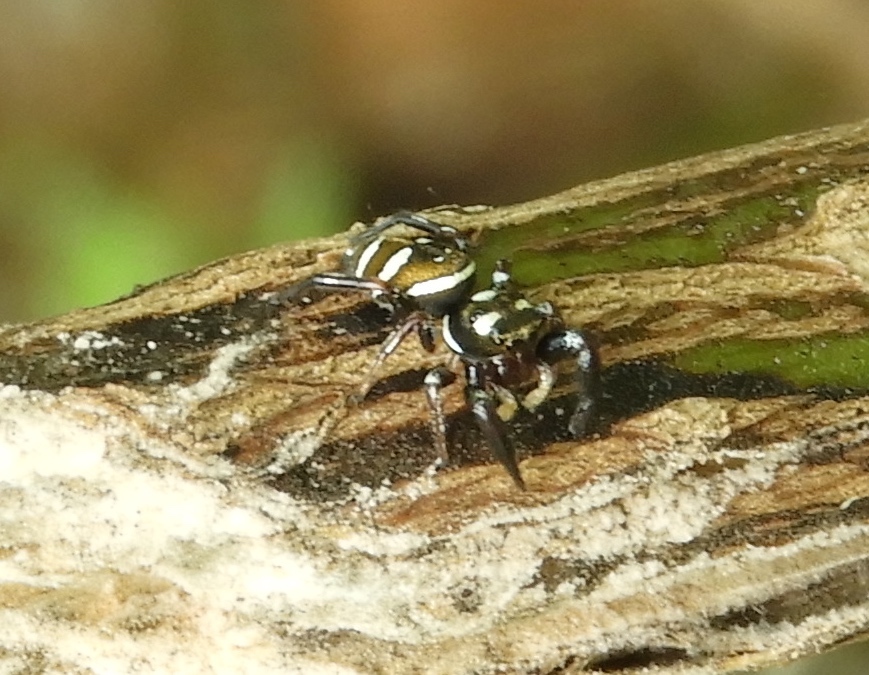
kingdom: Animalia
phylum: Arthropoda
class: Arachnida
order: Araneae
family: Salticidae
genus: Sassacus
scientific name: Sassacus
